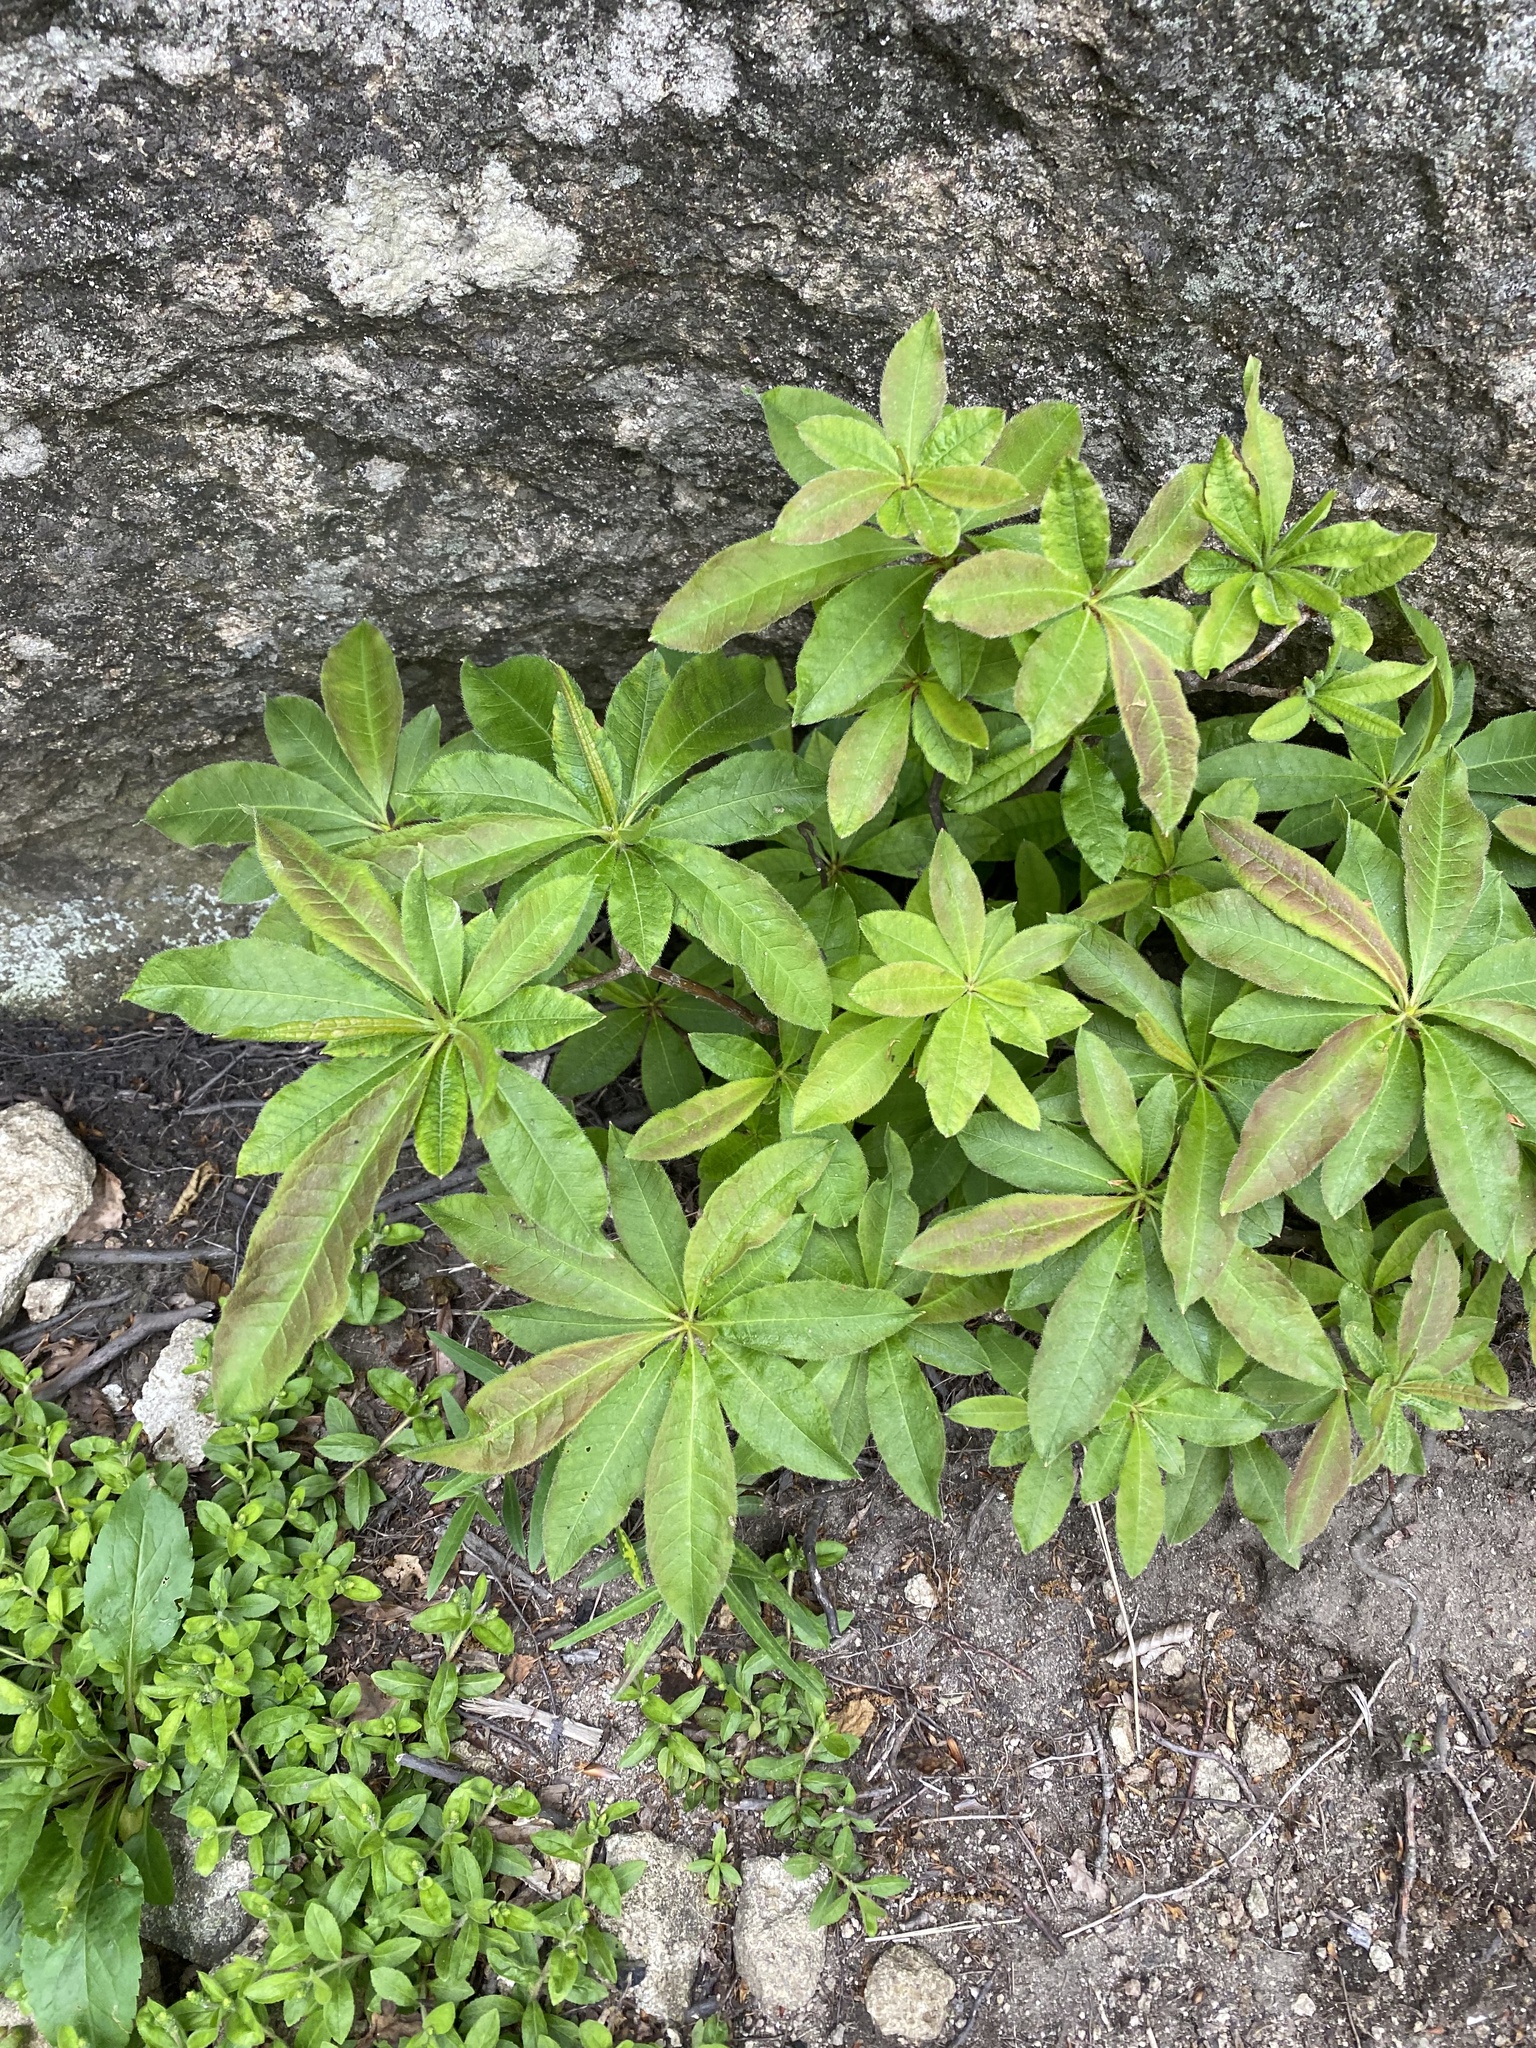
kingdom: Plantae
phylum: Tracheophyta
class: Magnoliopsida
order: Ericales
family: Ericaceae
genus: Rhododendron
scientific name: Rhododendron luteum
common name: Yellow azalea
